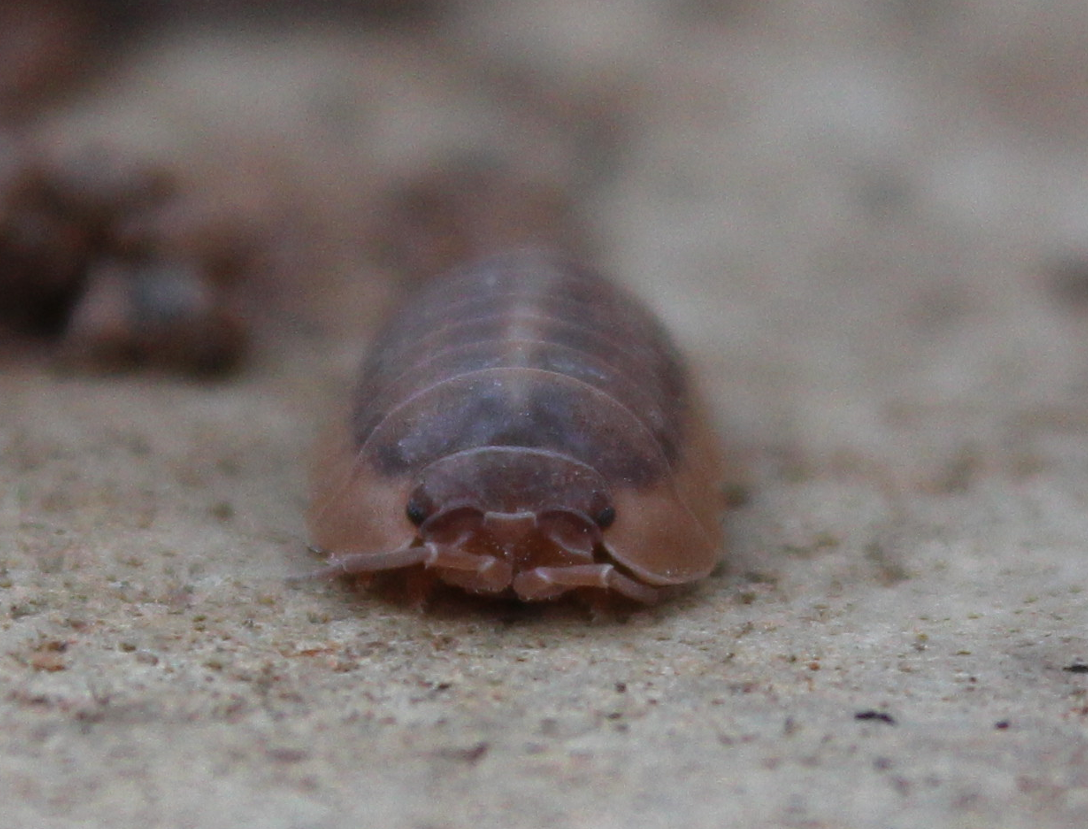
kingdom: Animalia
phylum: Arthropoda
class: Malacostraca
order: Isopoda
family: Armadillidiidae
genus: Armadillidium
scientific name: Armadillidium nasatum
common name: Isopod
